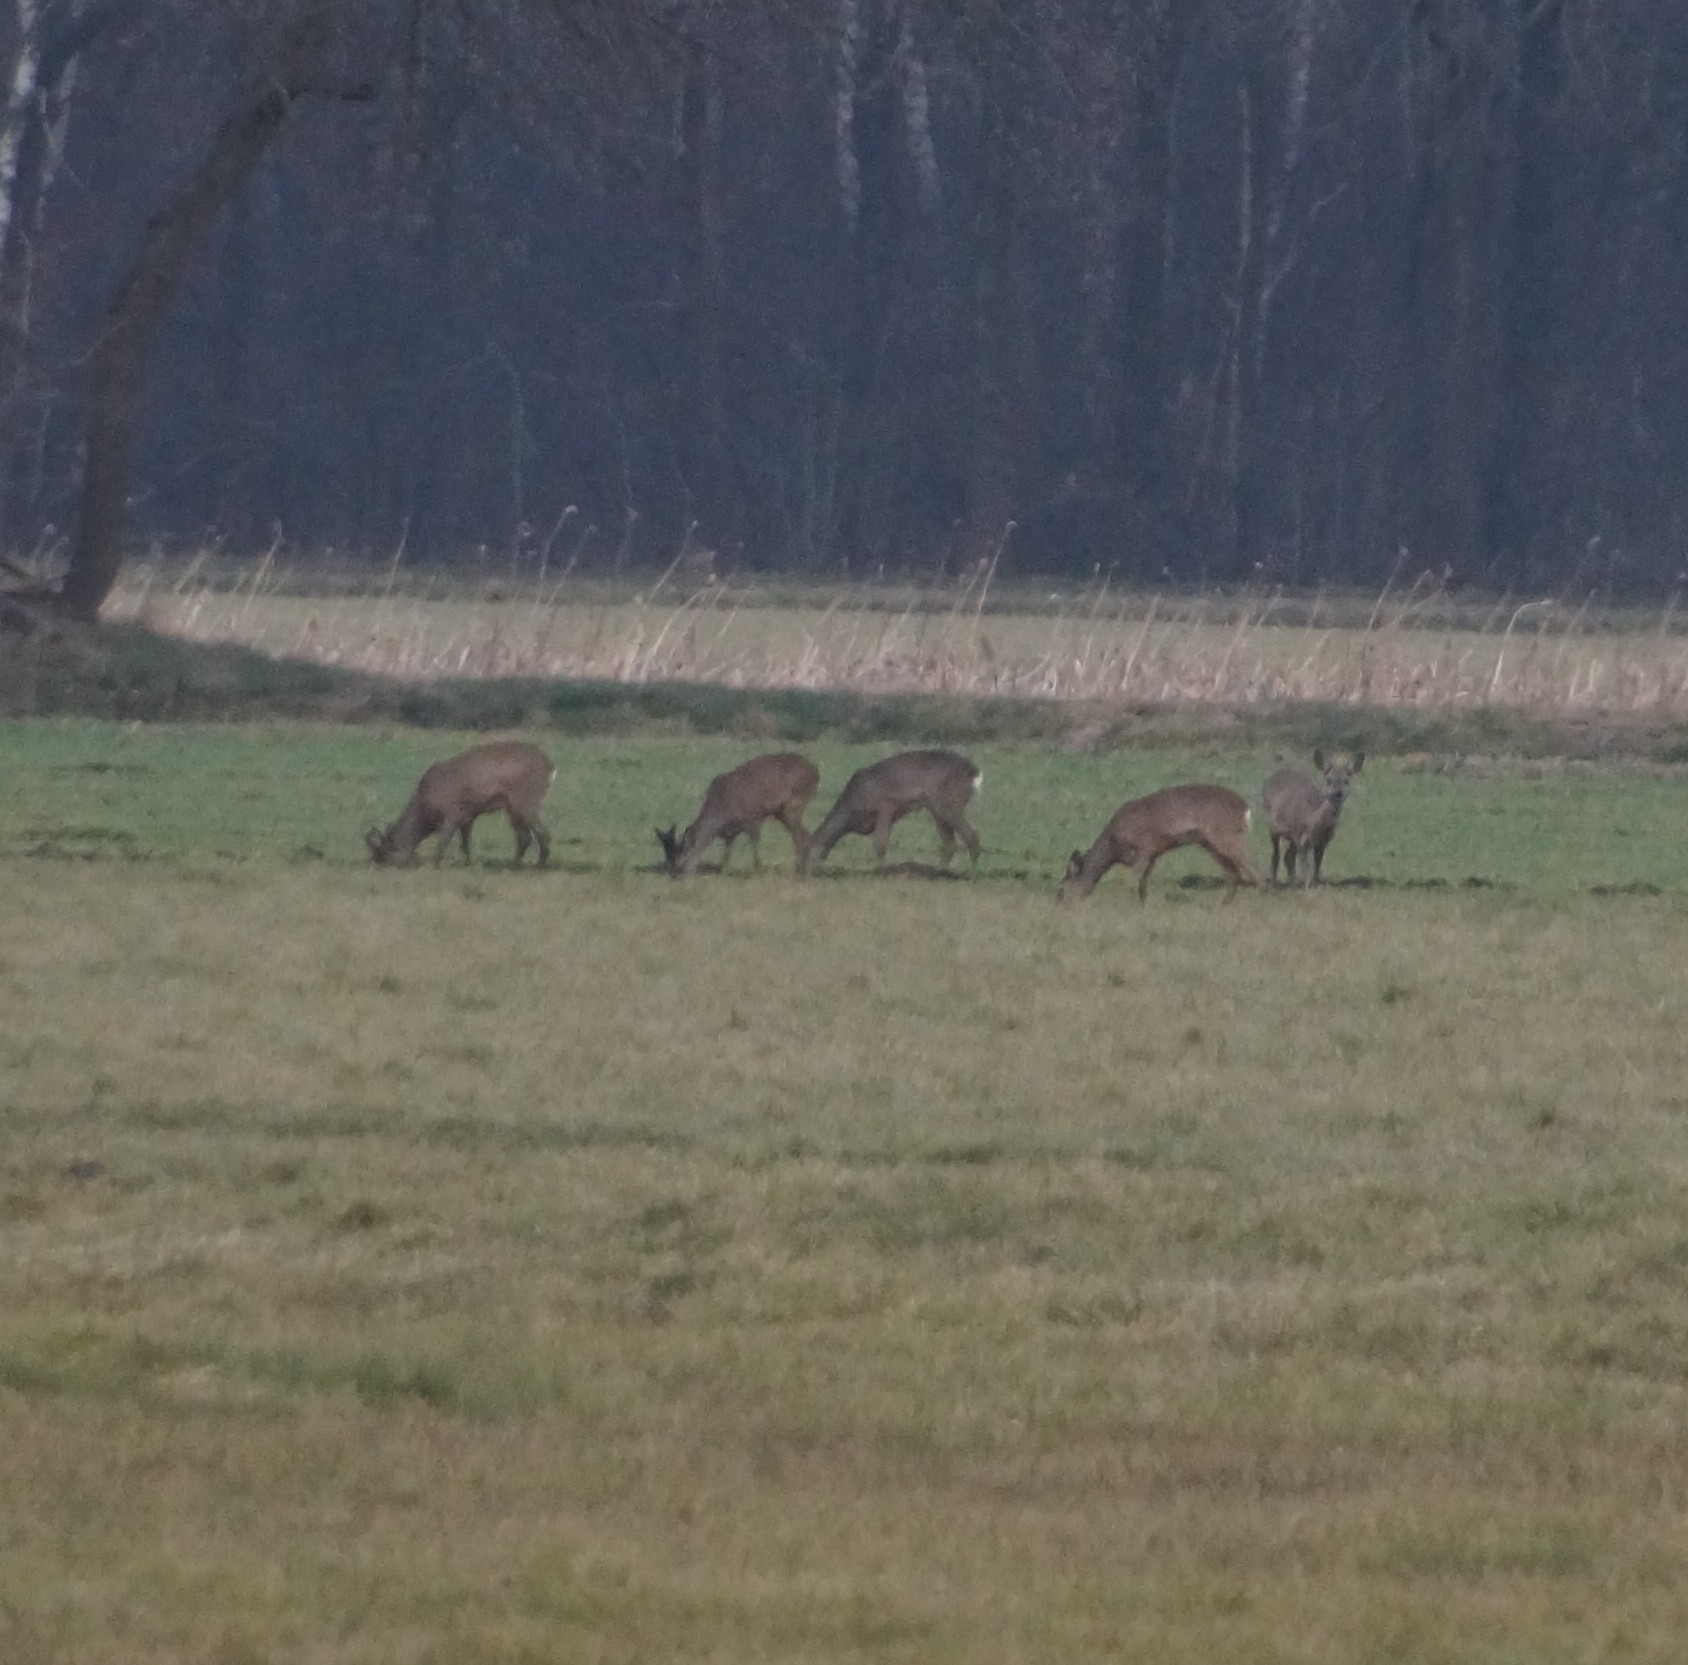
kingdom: Animalia
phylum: Chordata
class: Mammalia
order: Artiodactyla
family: Cervidae
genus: Capreolus
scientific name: Capreolus capreolus
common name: Western roe deer
